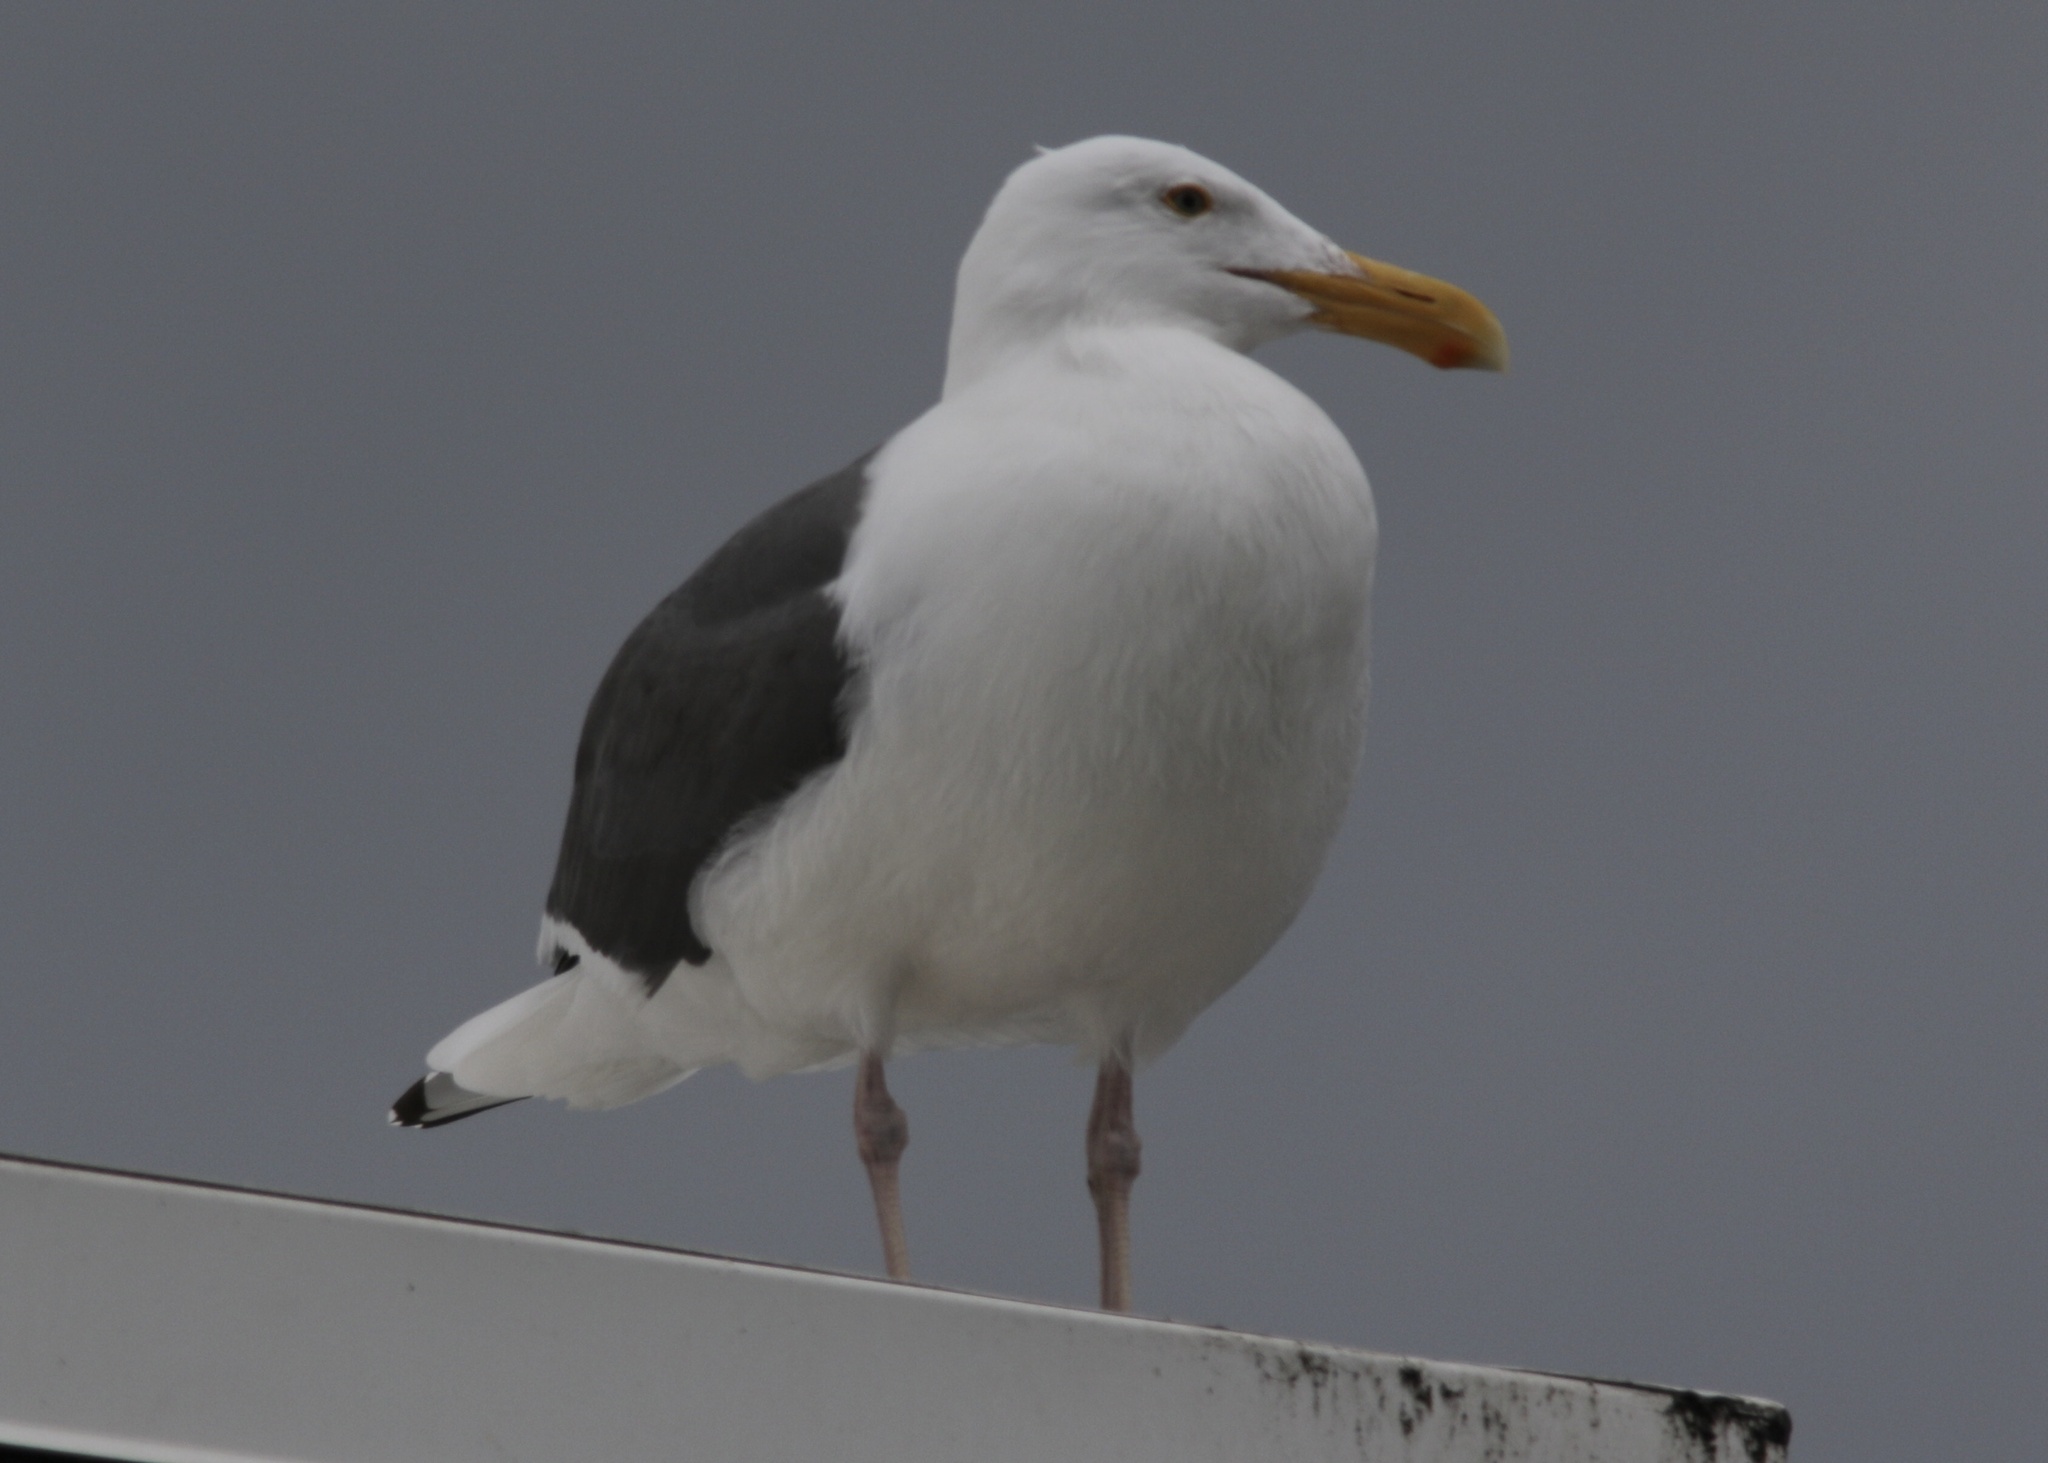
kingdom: Animalia
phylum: Chordata
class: Aves
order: Charadriiformes
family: Laridae
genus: Larus
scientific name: Larus occidentalis
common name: Western gull
